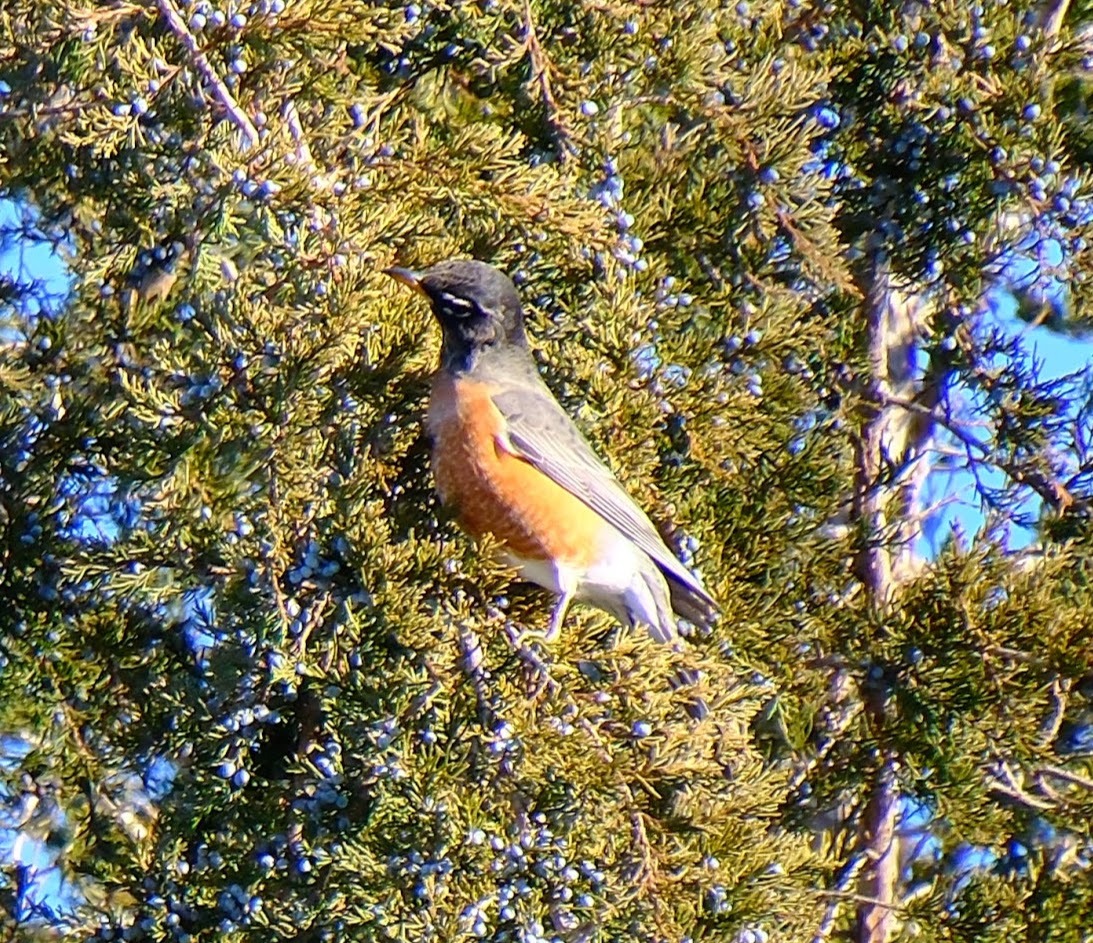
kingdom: Animalia
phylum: Chordata
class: Aves
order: Passeriformes
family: Turdidae
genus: Turdus
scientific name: Turdus migratorius
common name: American robin
